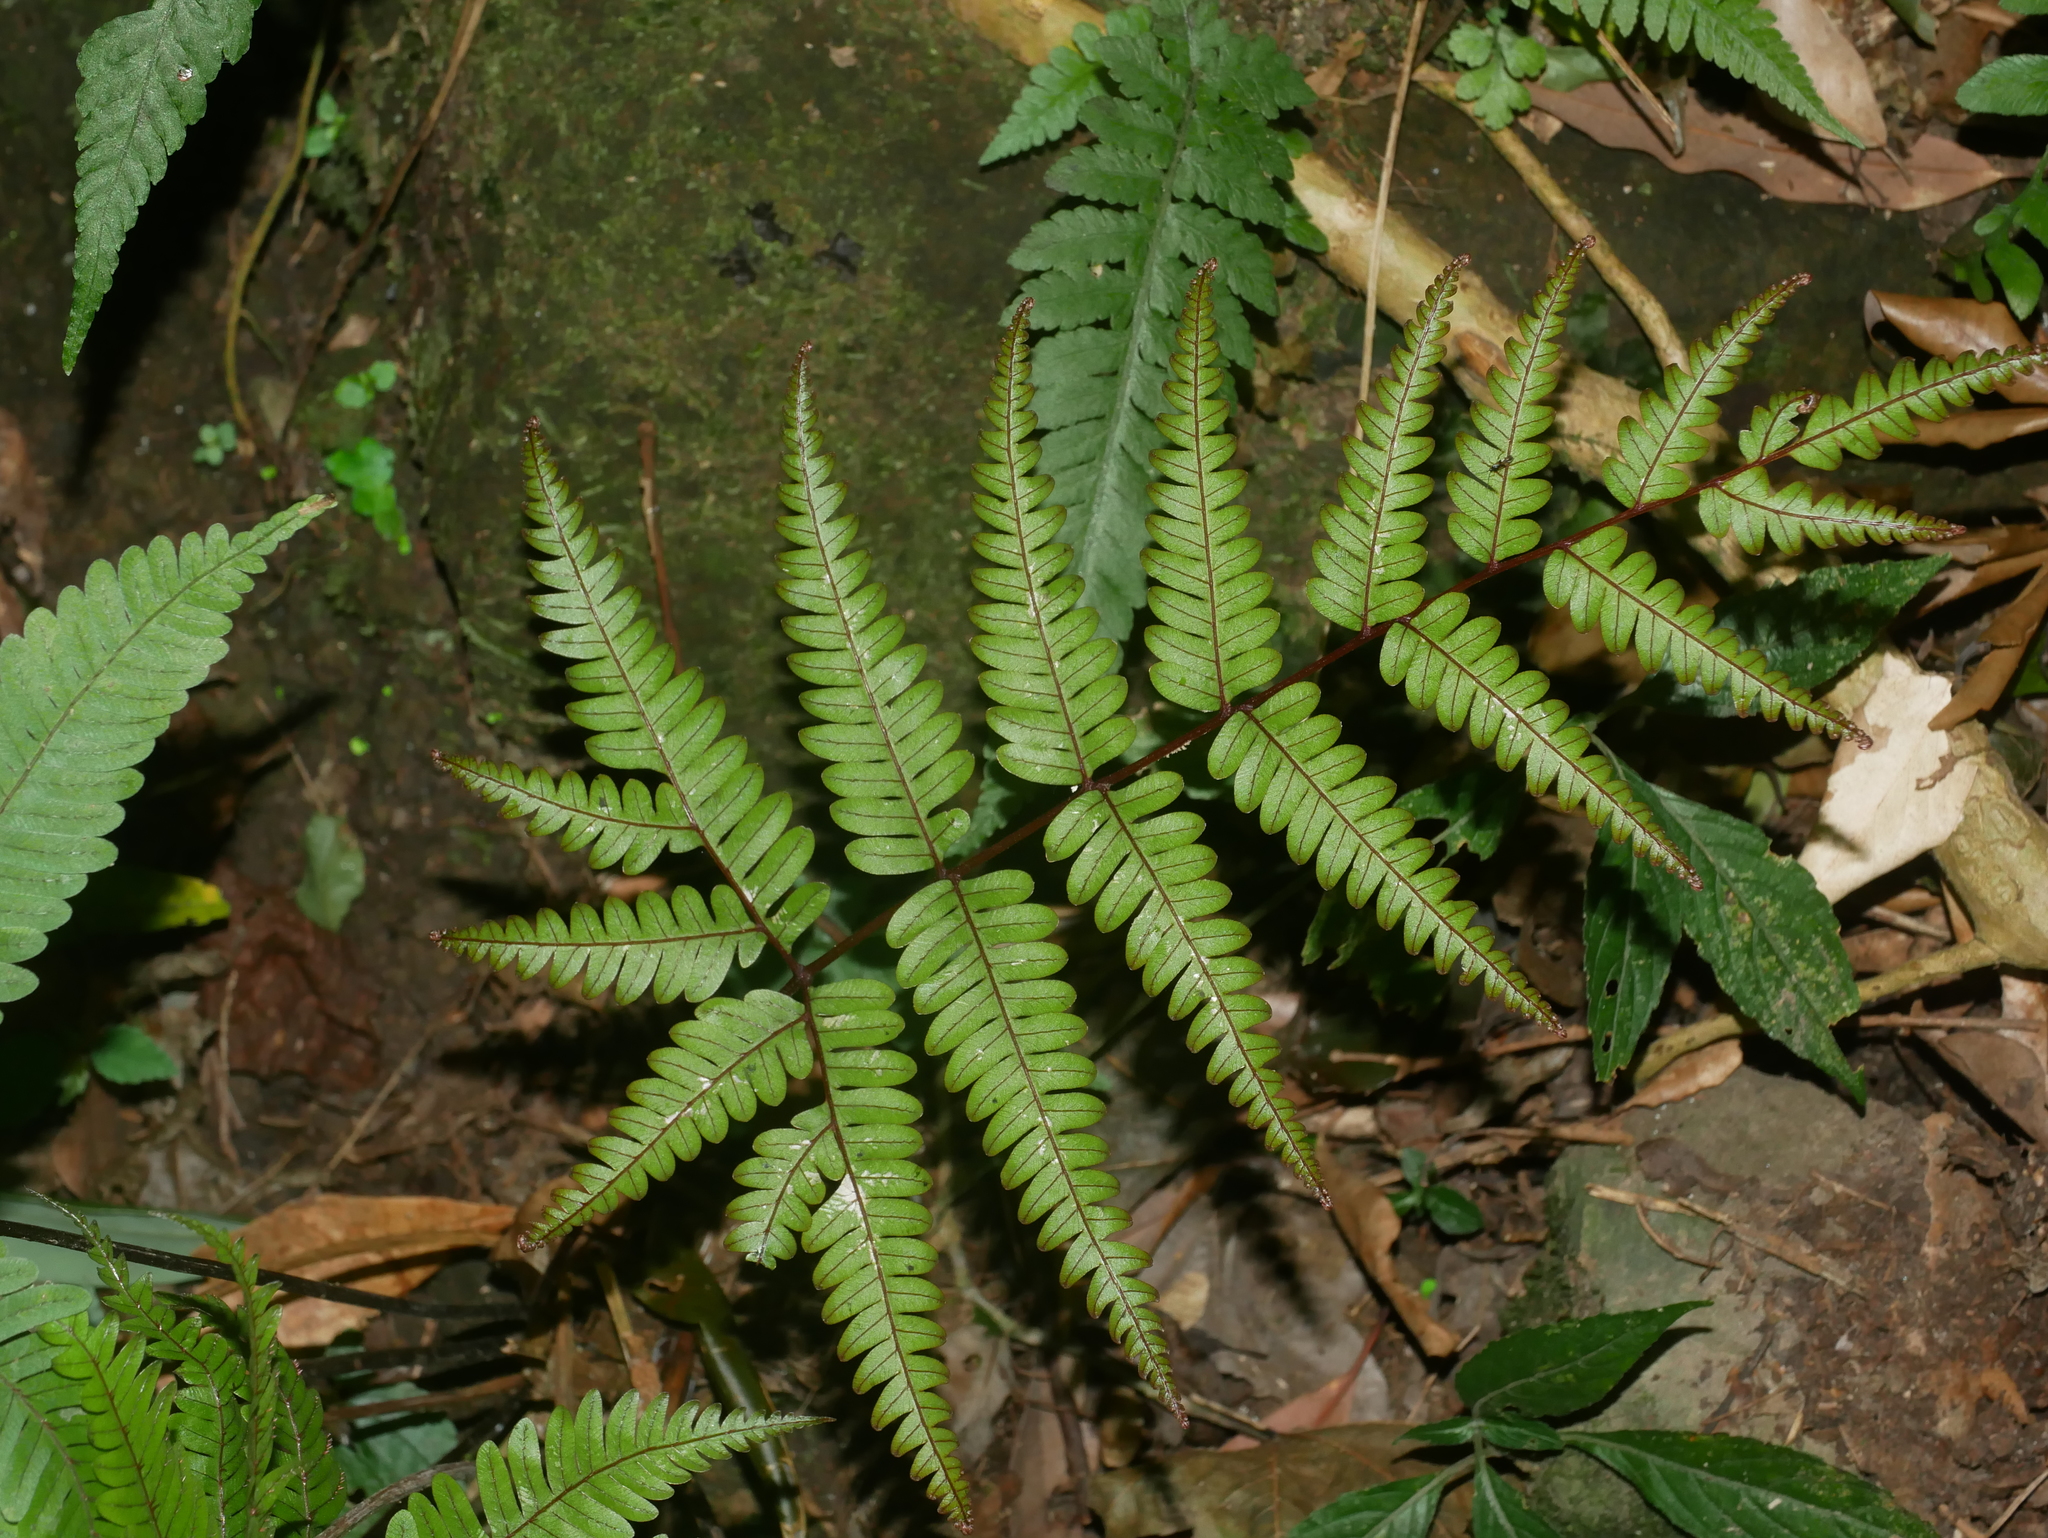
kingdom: Plantae
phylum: Tracheophyta
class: Polypodiopsida
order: Polypodiales
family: Pteridaceae
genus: Pteris
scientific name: Pteris setulosocostulata
